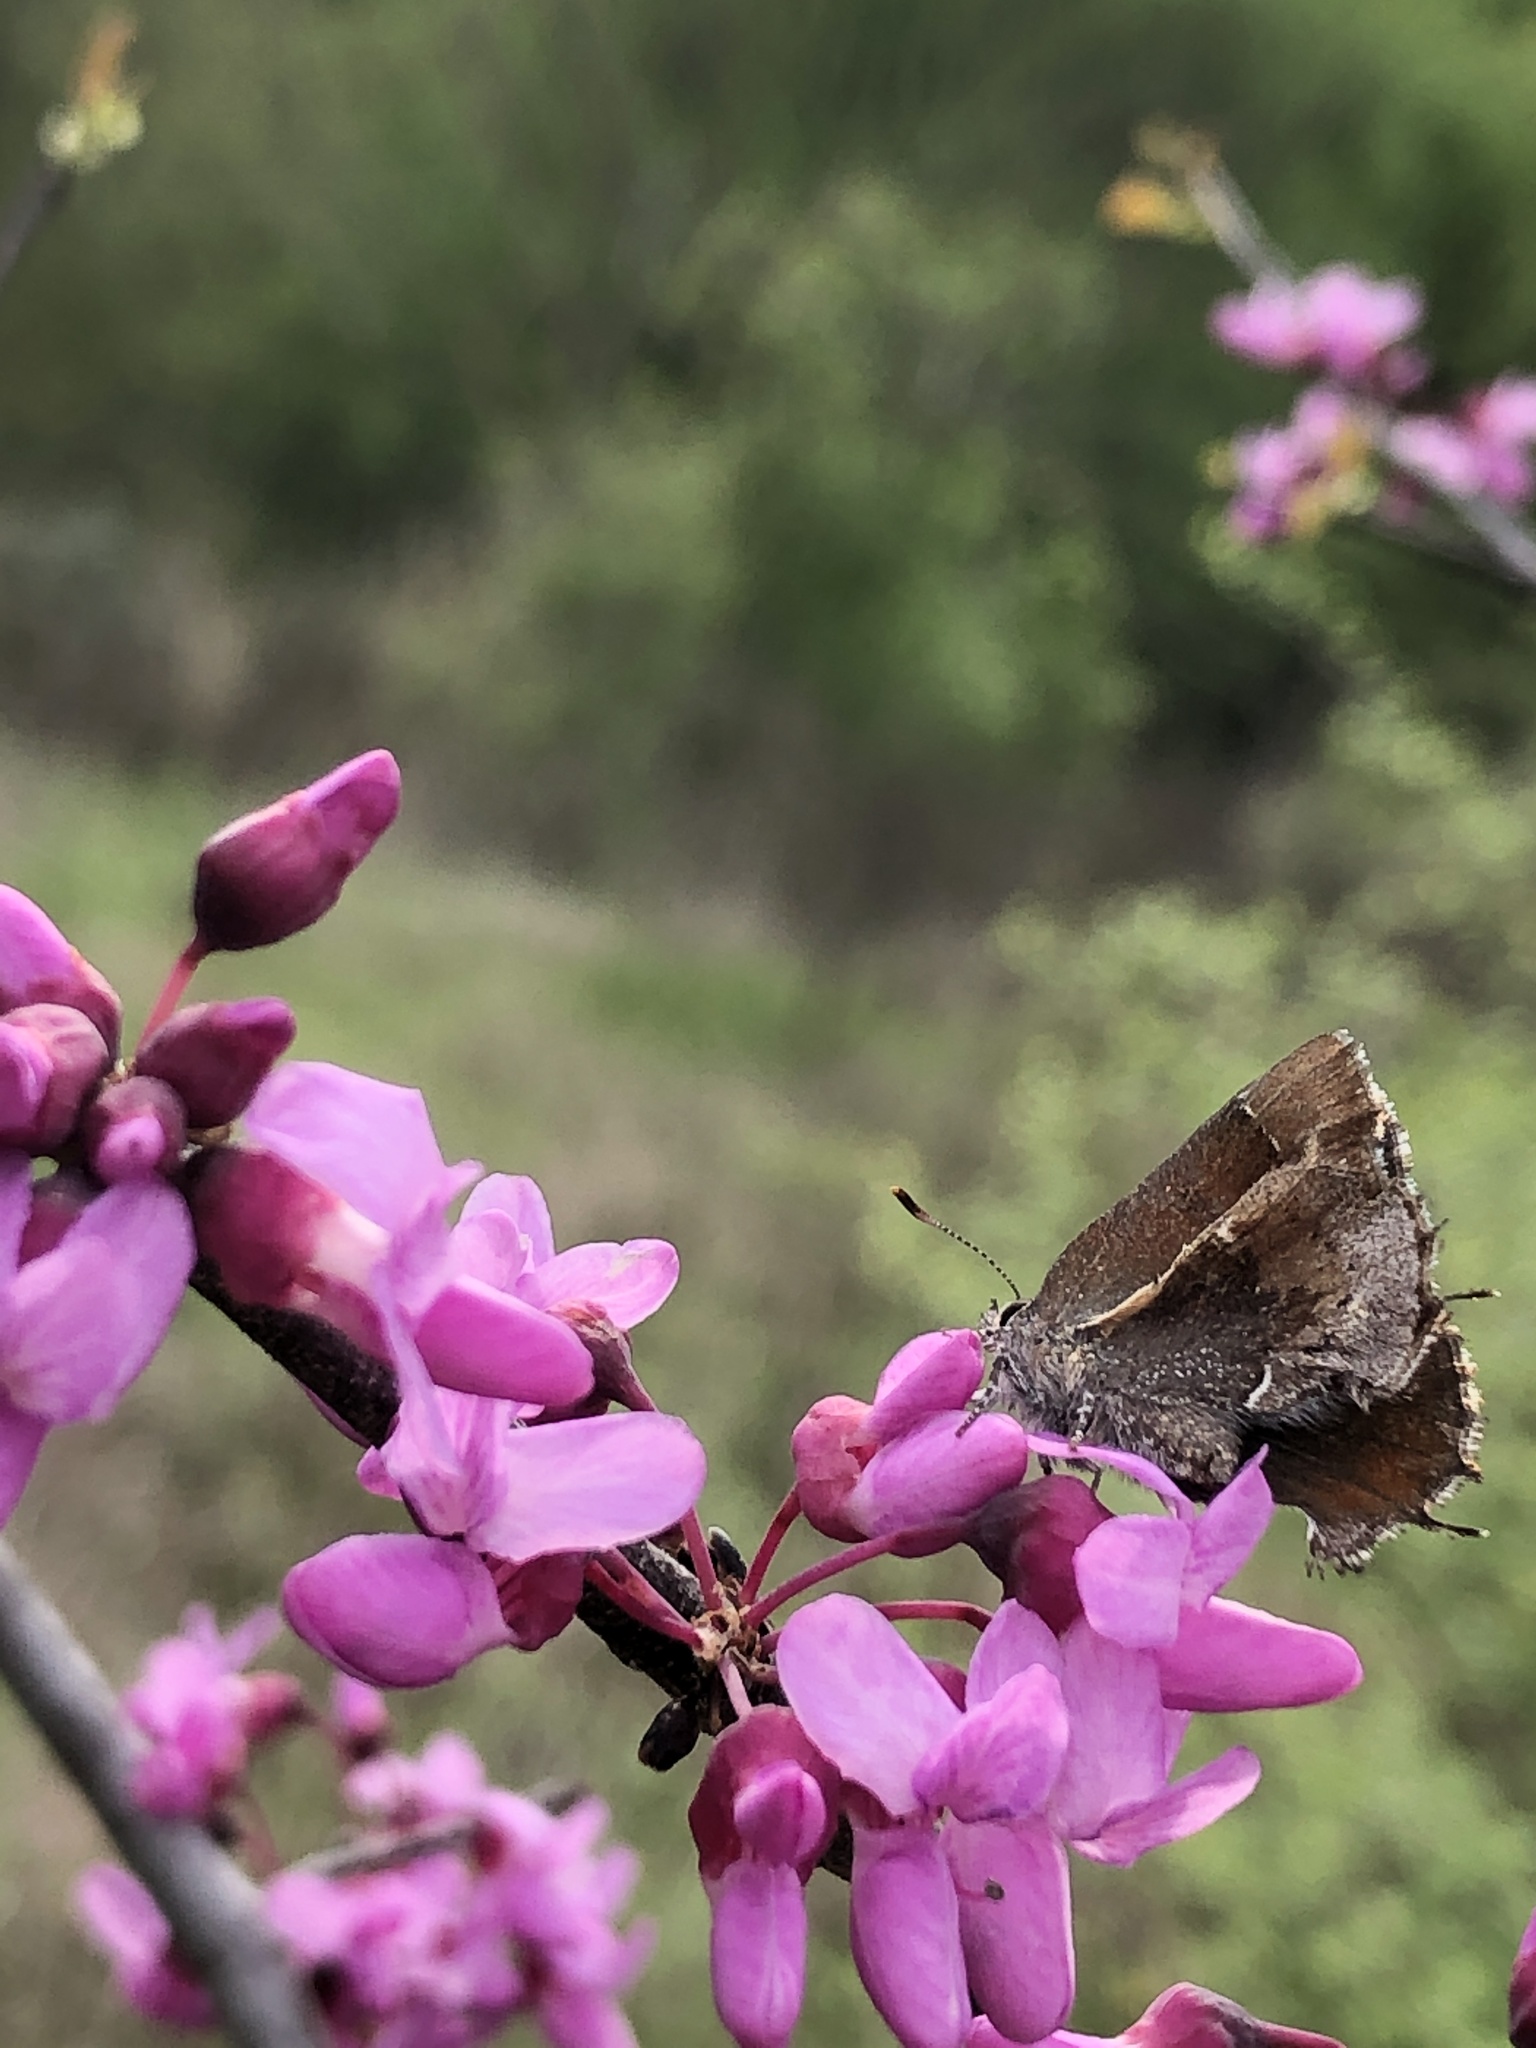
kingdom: Animalia
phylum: Arthropoda
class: Insecta
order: Lepidoptera
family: Lycaenidae
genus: Incisalia
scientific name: Incisalia henrici
